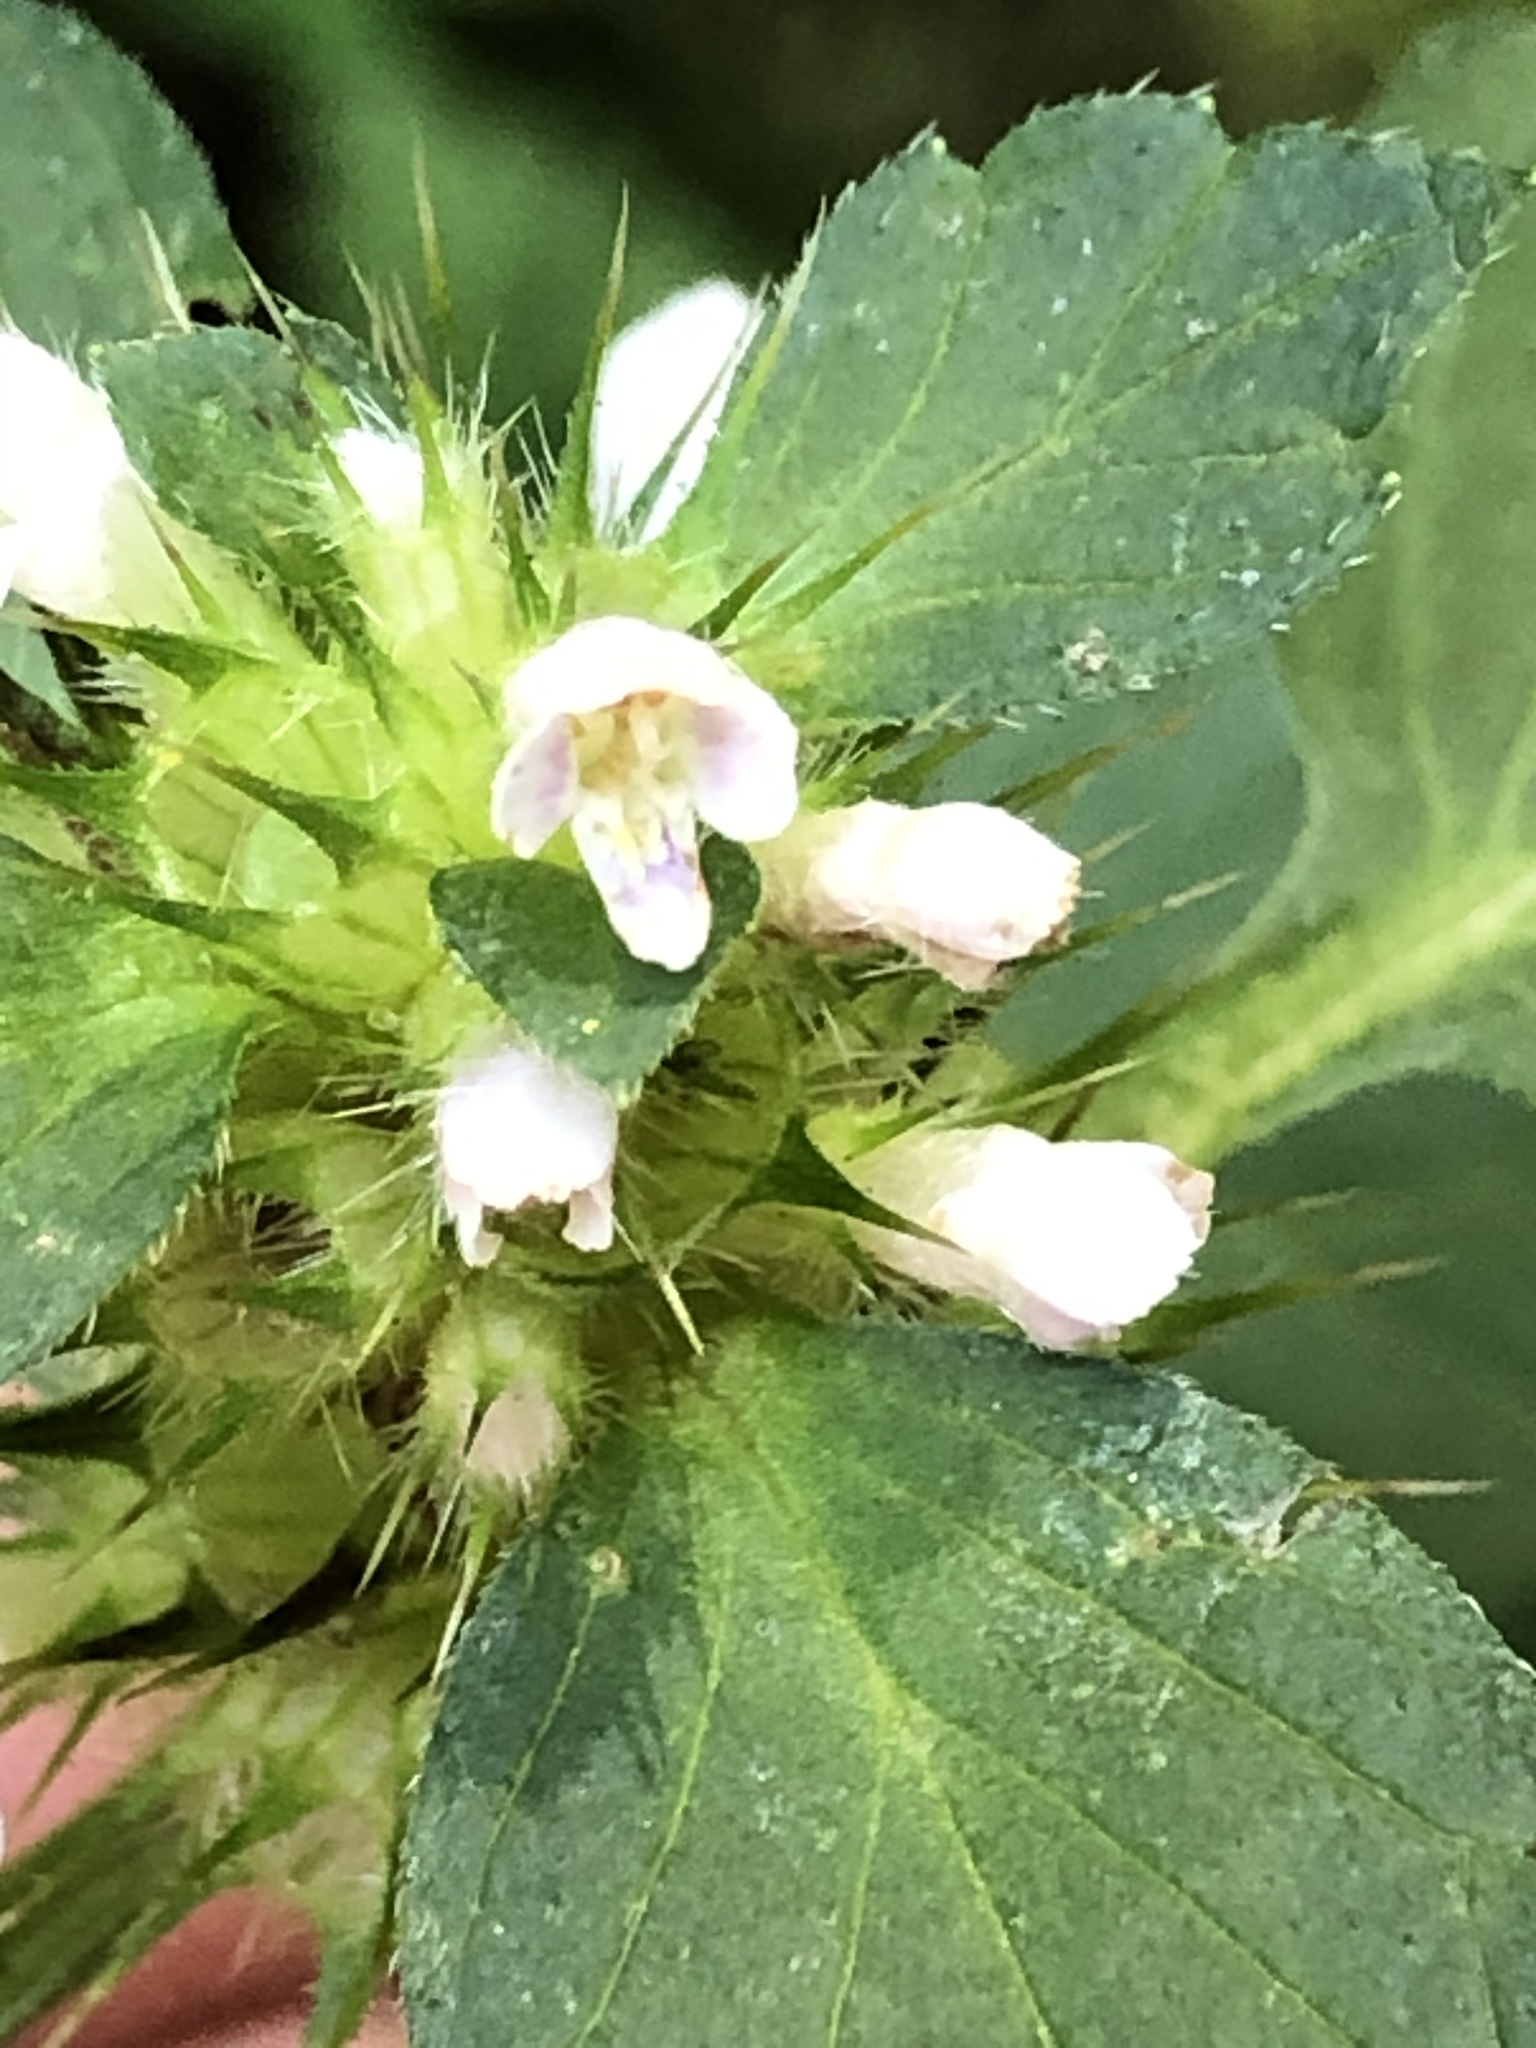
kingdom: Plantae
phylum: Tracheophyta
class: Magnoliopsida
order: Lamiales
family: Lamiaceae
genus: Galeopsis
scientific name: Galeopsis tetrahit
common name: Common hemp-nettle
